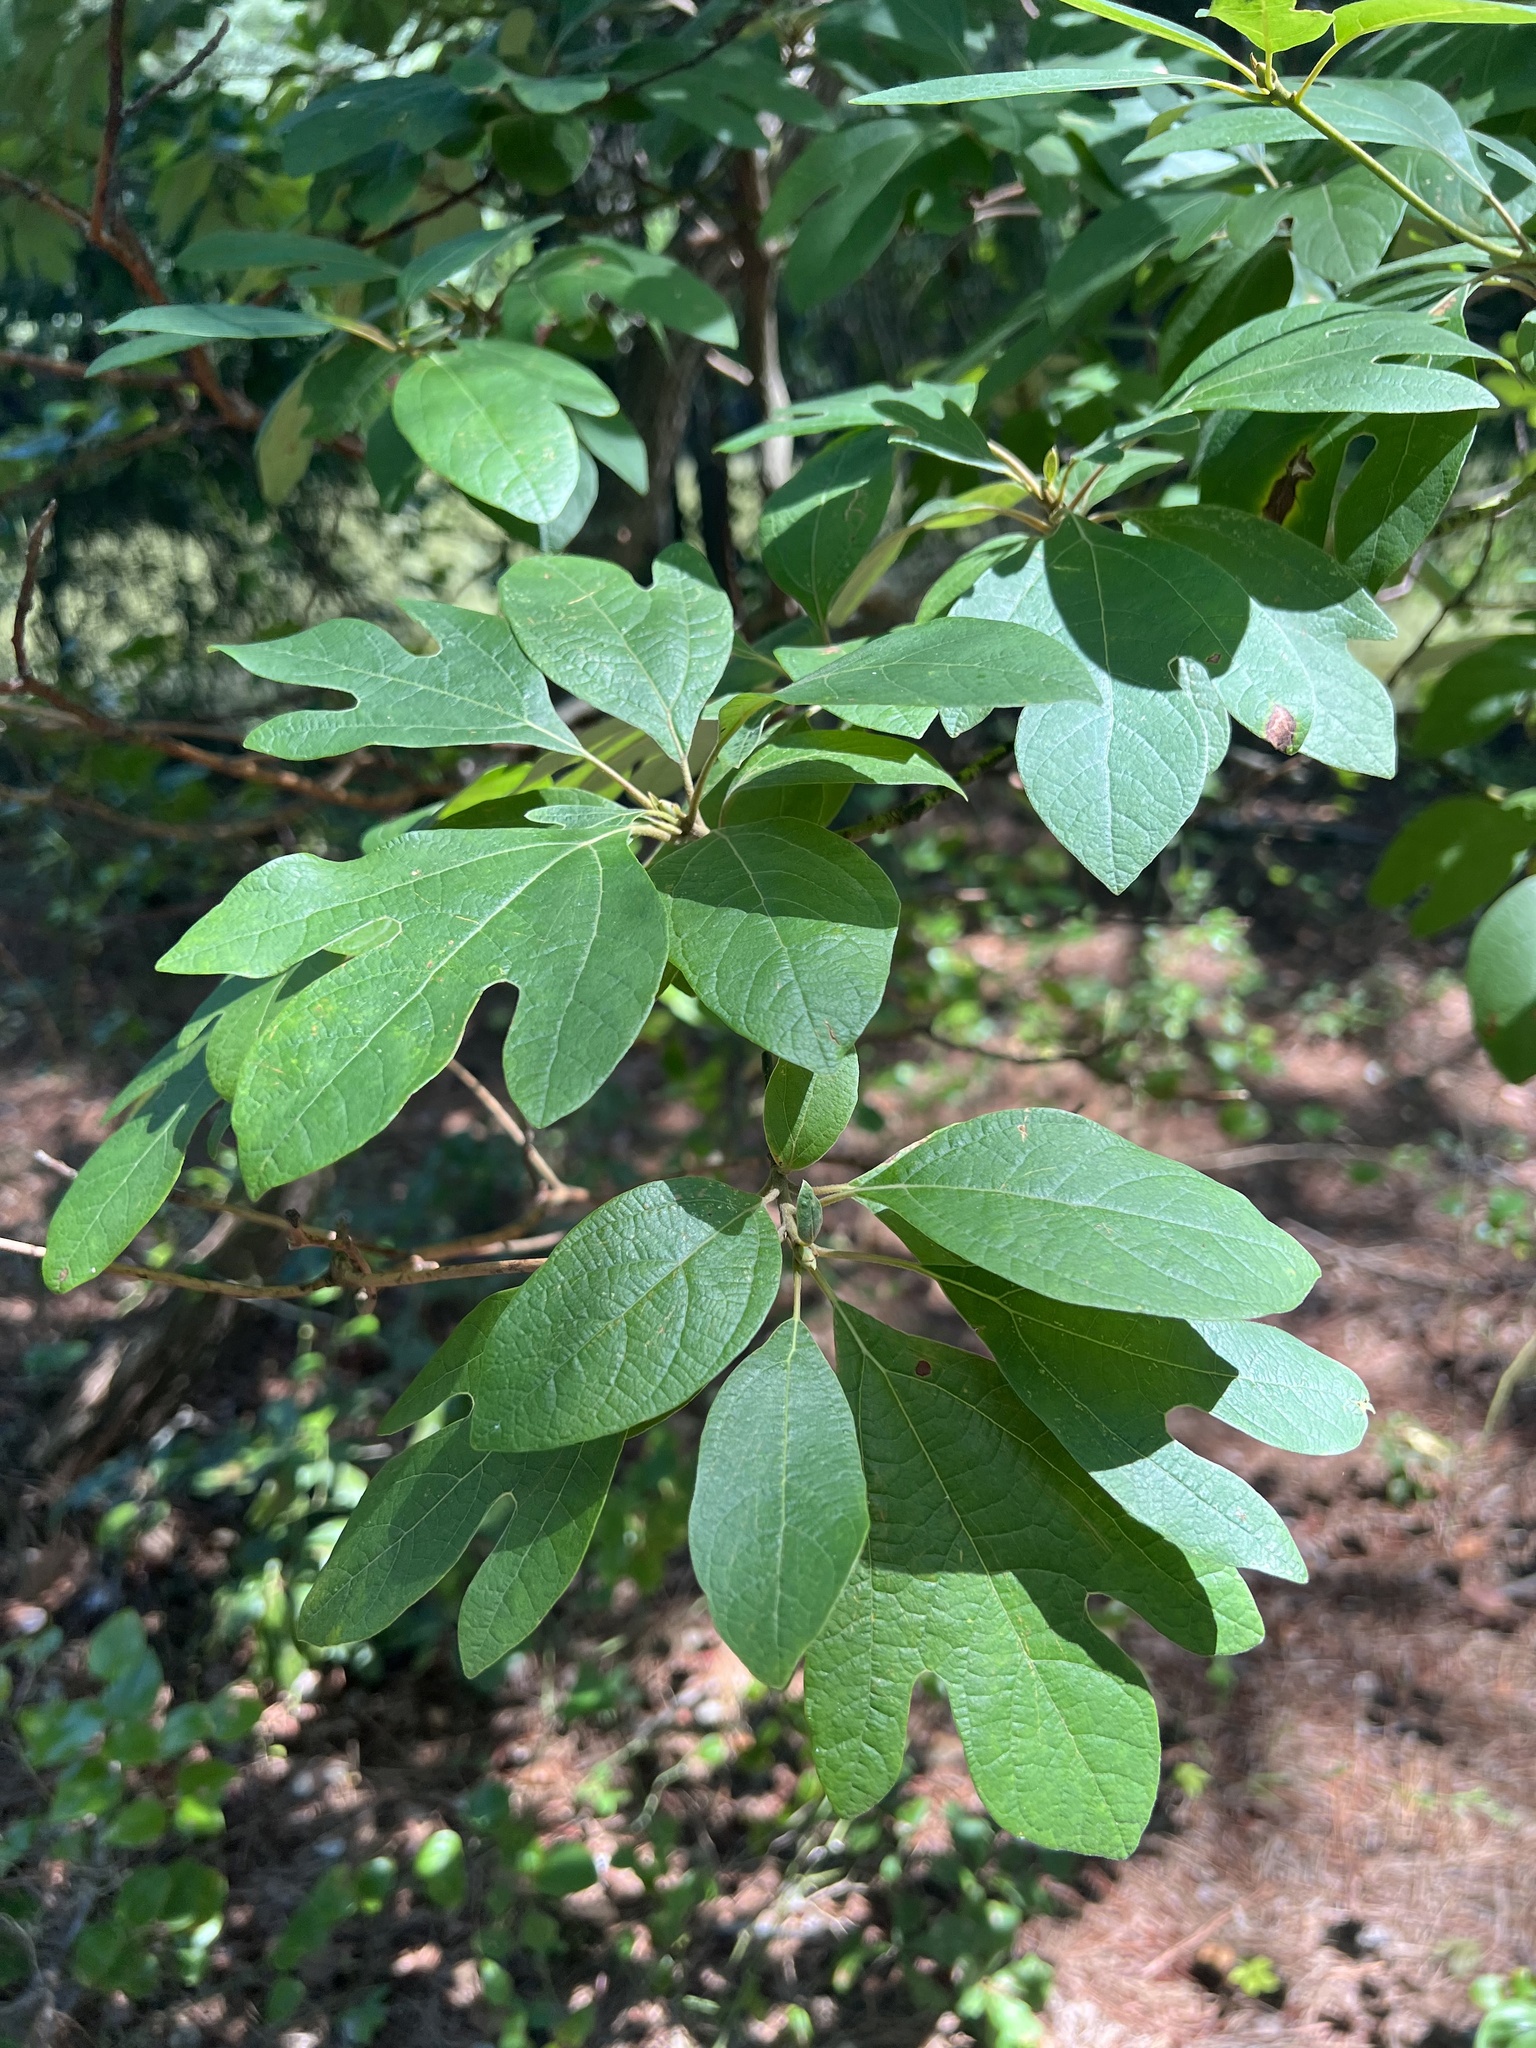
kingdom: Plantae
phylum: Tracheophyta
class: Magnoliopsida
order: Laurales
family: Lauraceae
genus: Sassafras
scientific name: Sassafras albidum
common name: Sassafras
